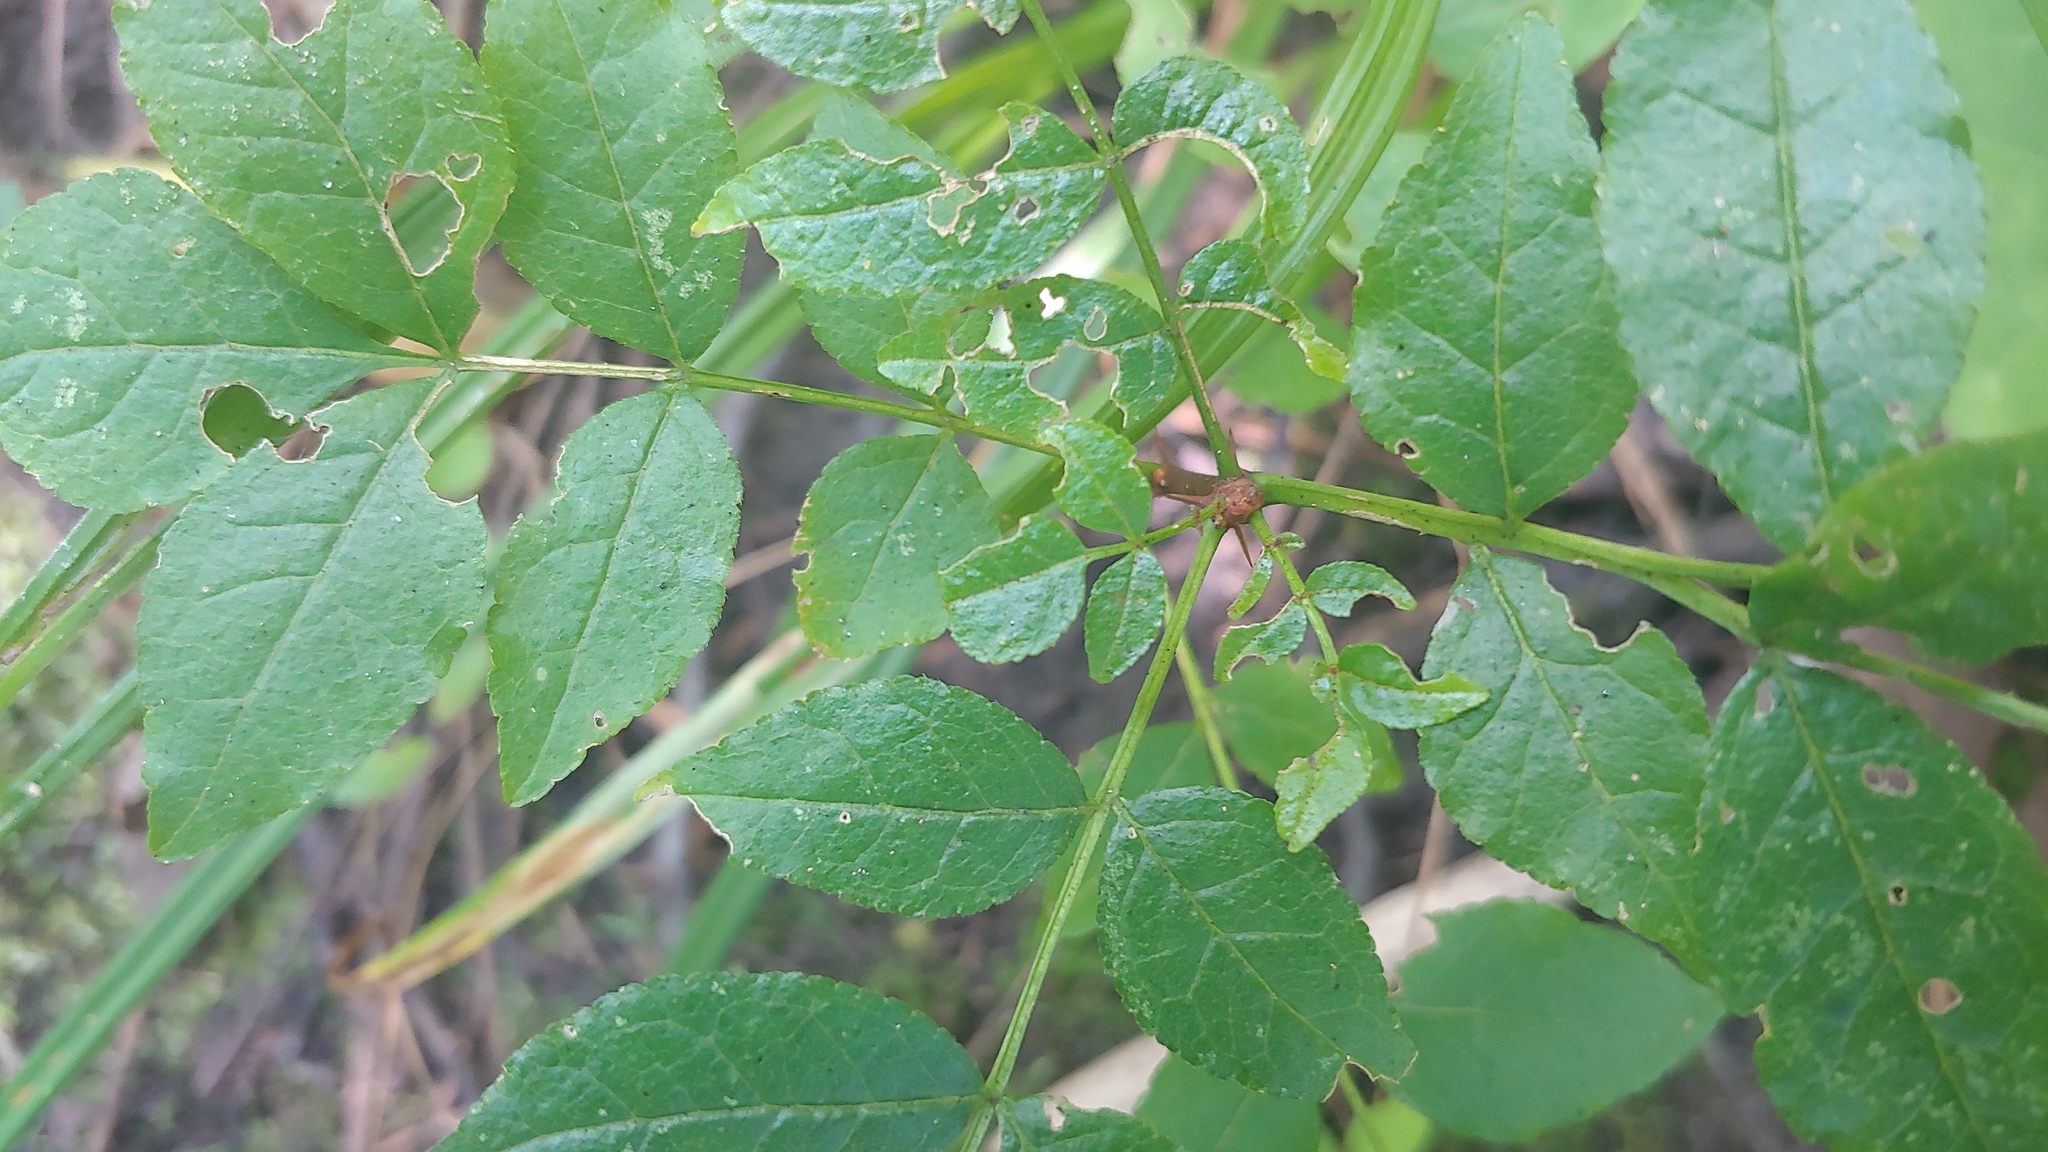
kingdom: Plantae
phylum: Tracheophyta
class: Magnoliopsida
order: Sapindales
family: Rutaceae
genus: Zanthoxylum
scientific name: Zanthoxylum americanum
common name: Northern prickly-ash
